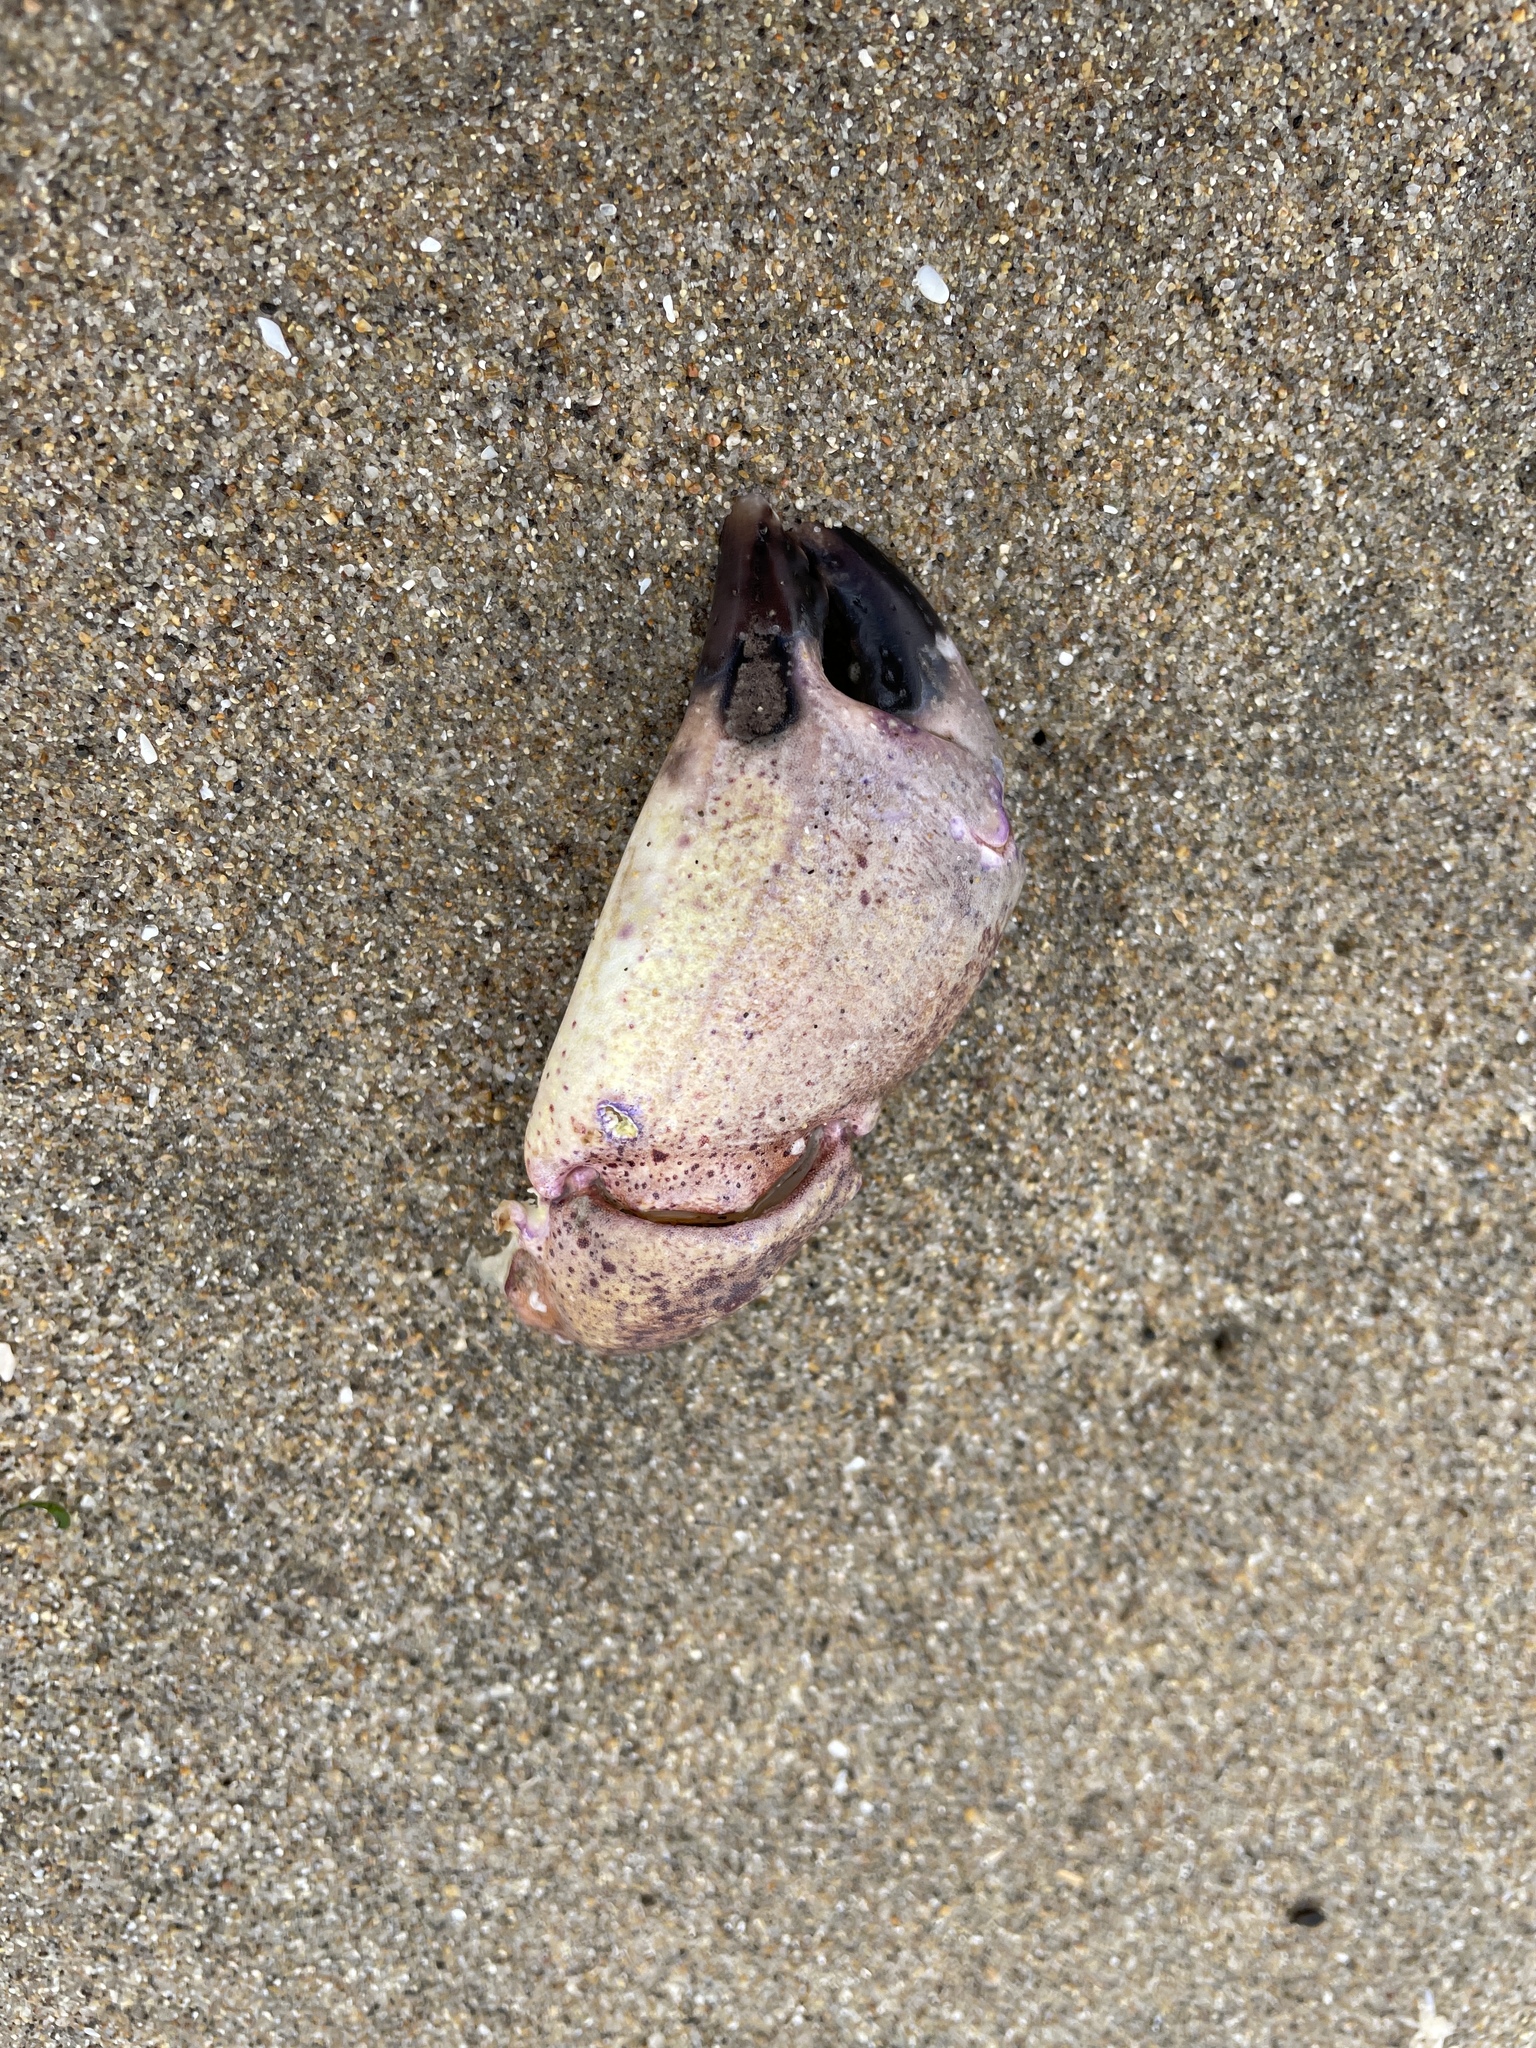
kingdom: Animalia
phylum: Arthropoda
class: Malacostraca
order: Decapoda
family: Cancridae
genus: Romaleon
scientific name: Romaleon antennarium
